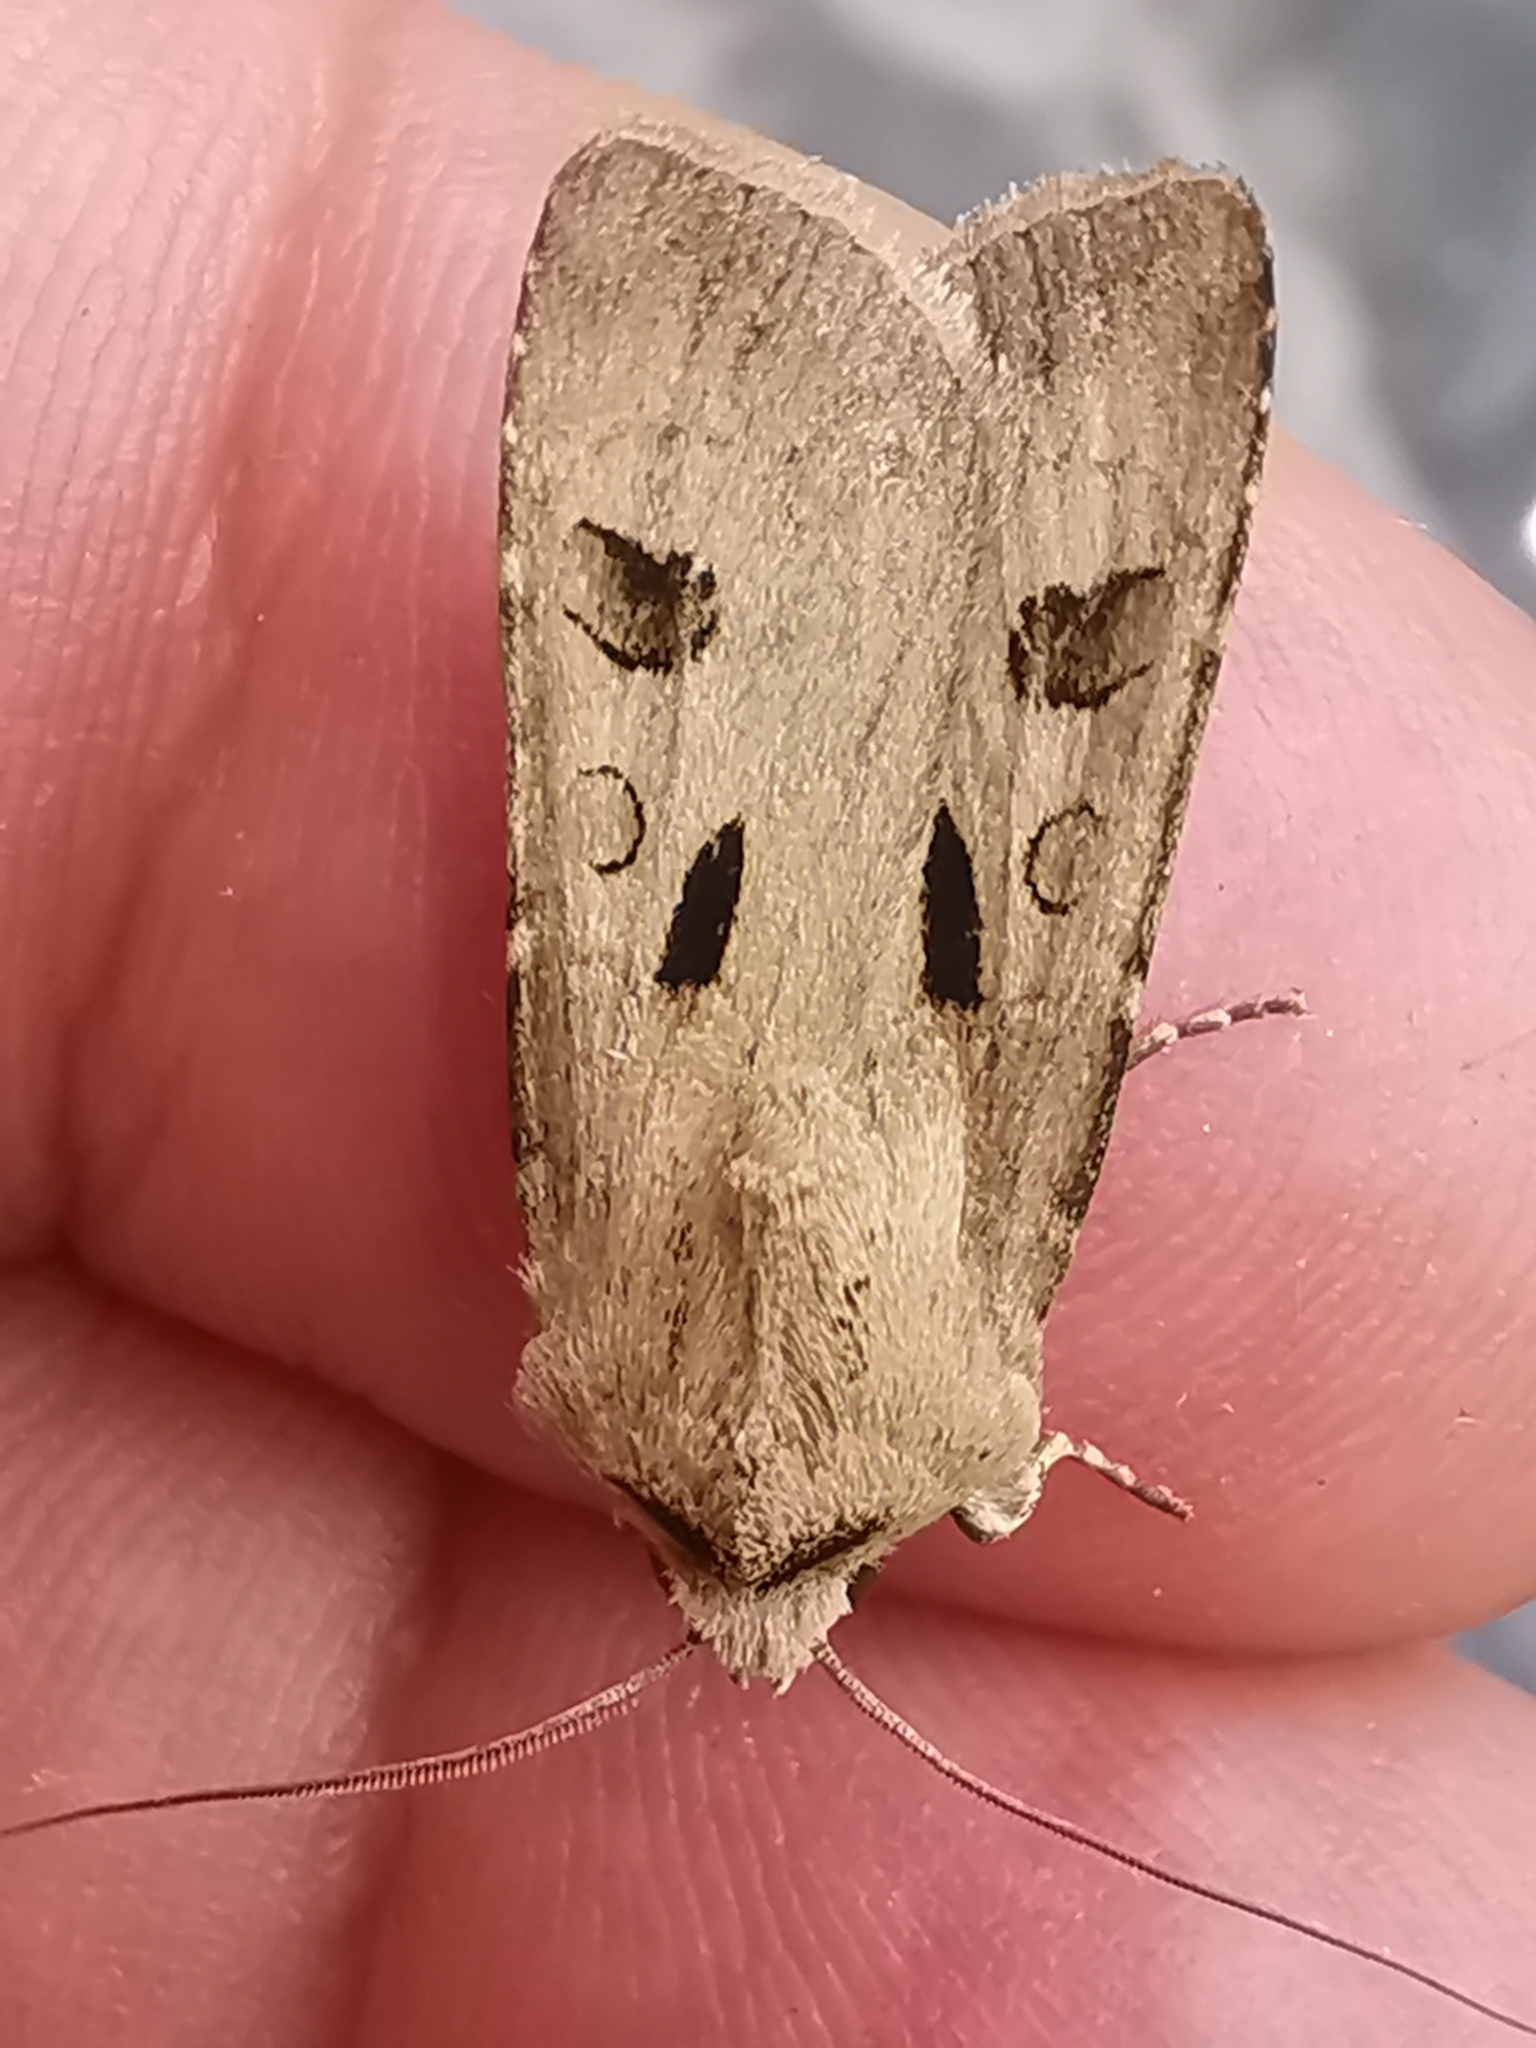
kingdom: Animalia
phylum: Arthropoda
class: Insecta
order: Lepidoptera
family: Noctuidae
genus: Agrotis
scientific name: Agrotis exclamationis
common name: Heart and dart
